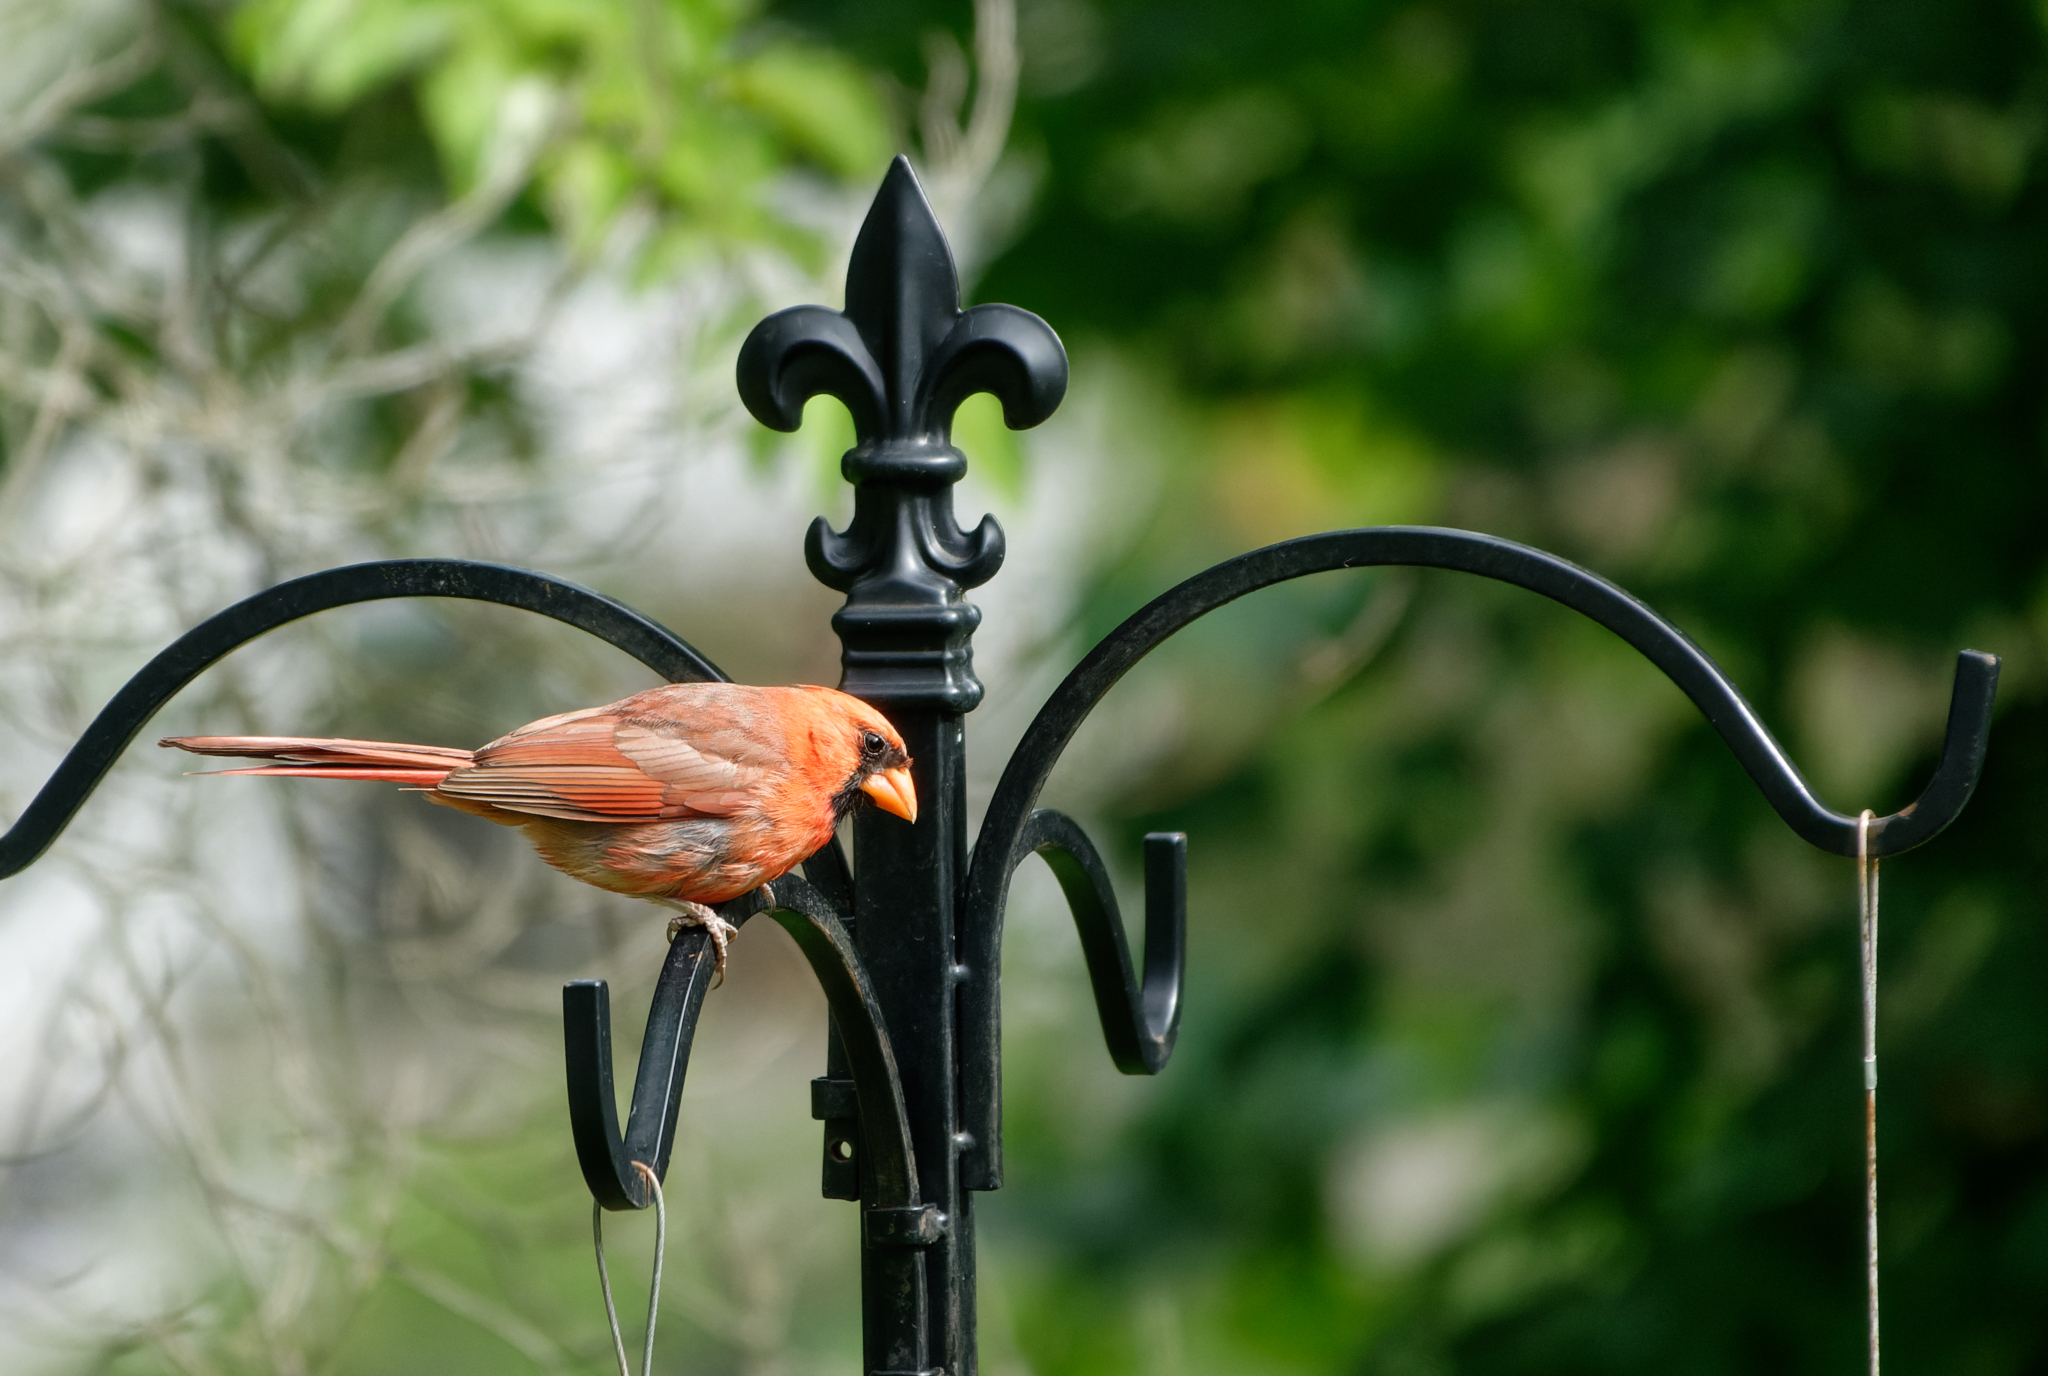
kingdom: Animalia
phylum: Chordata
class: Aves
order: Passeriformes
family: Cardinalidae
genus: Cardinalis
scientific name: Cardinalis cardinalis
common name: Northern cardinal
